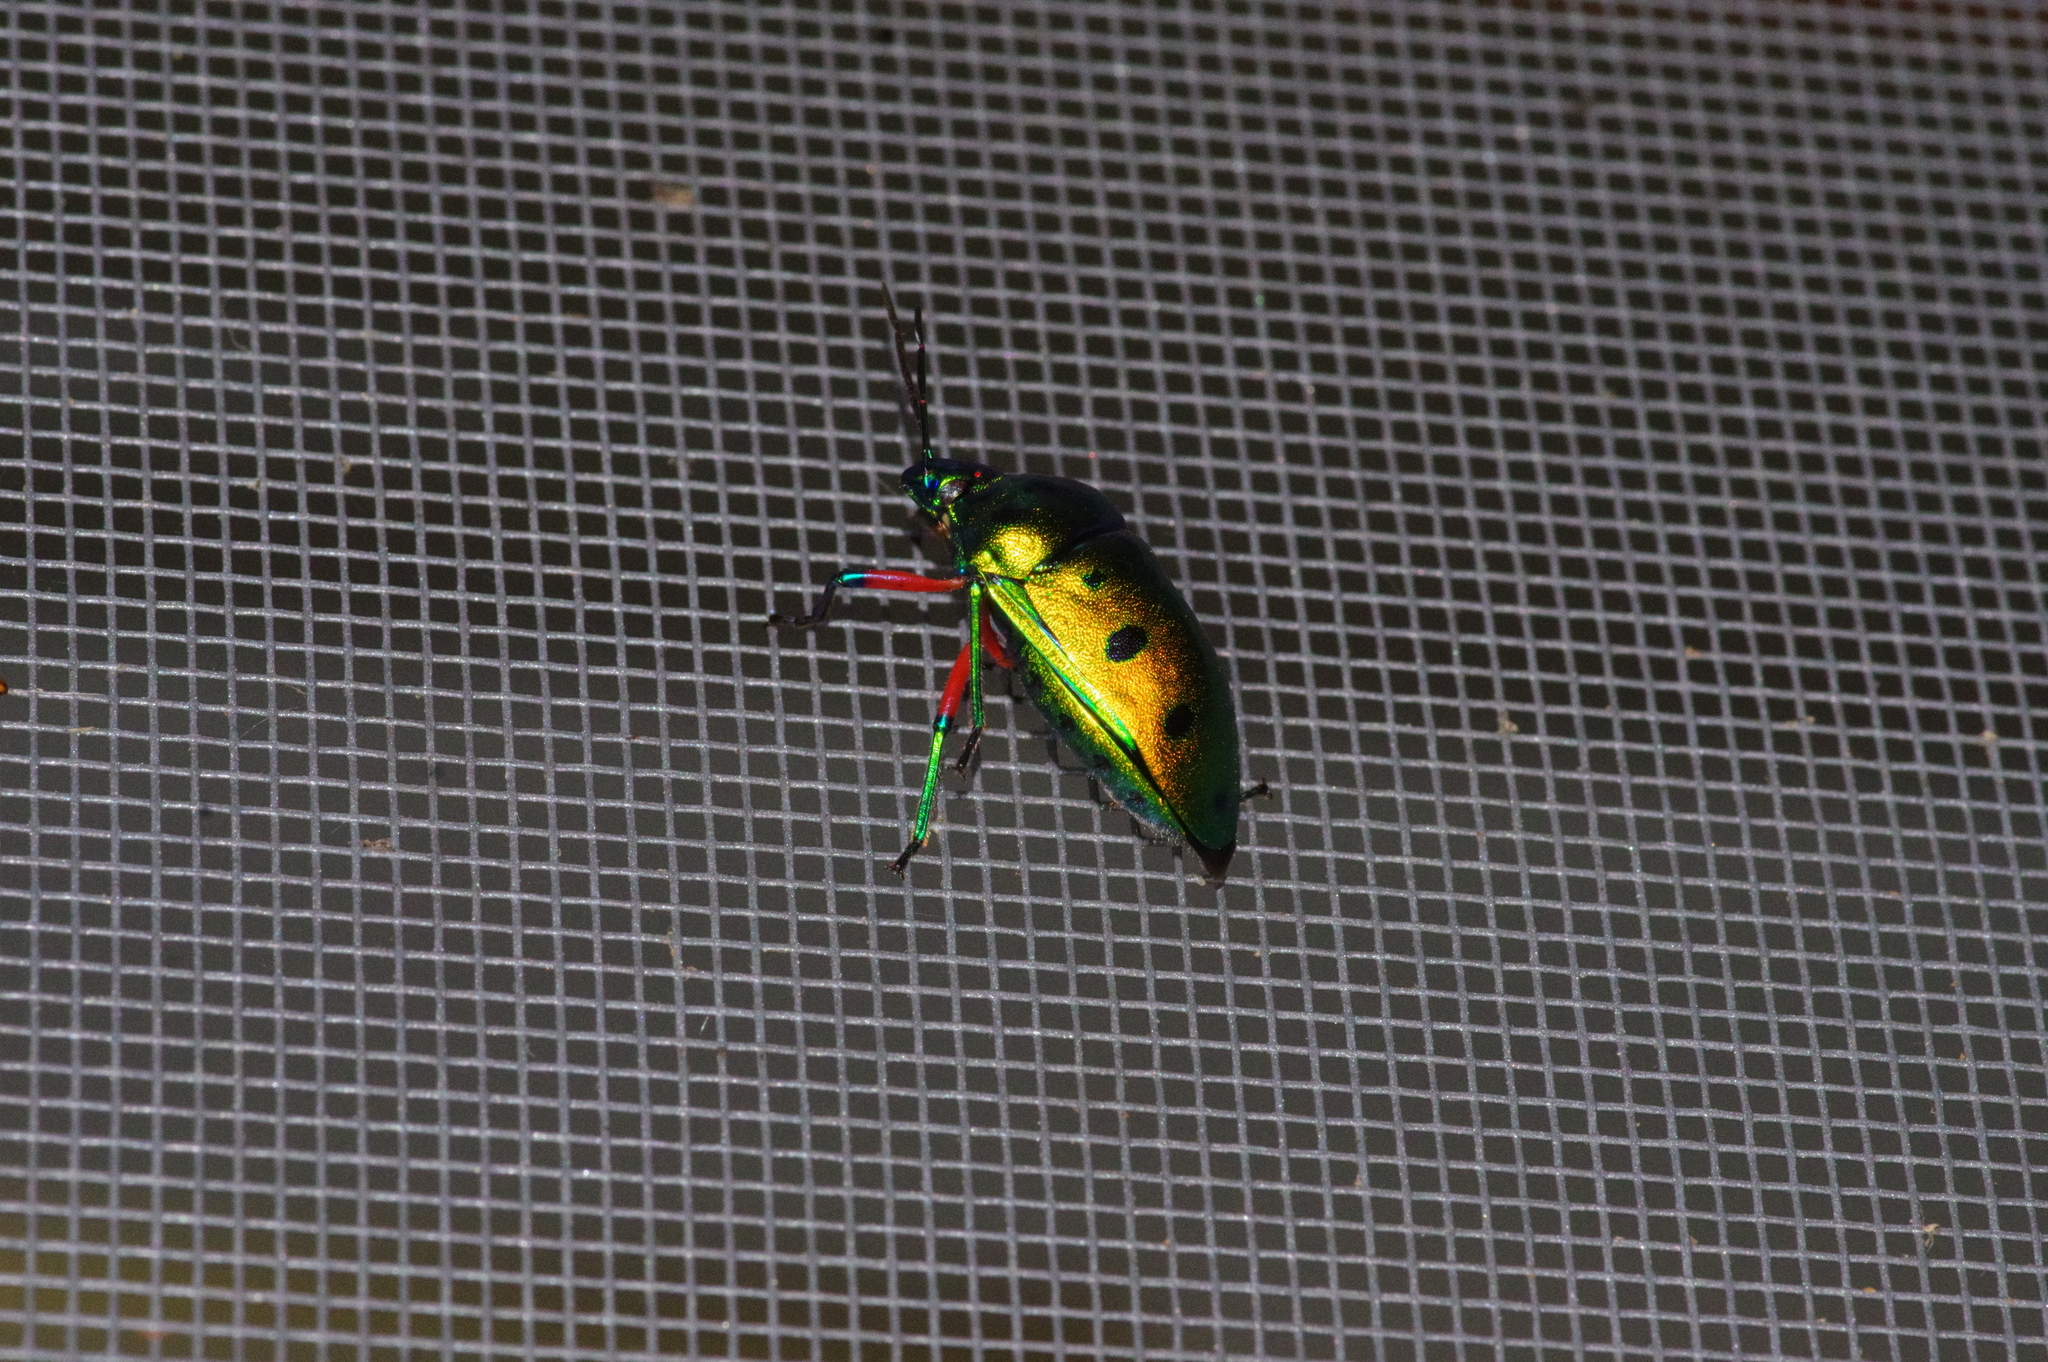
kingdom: Animalia
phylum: Arthropoda
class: Insecta
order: Hemiptera
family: Scutelleridae
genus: Calliphara
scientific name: Calliphara excellens
